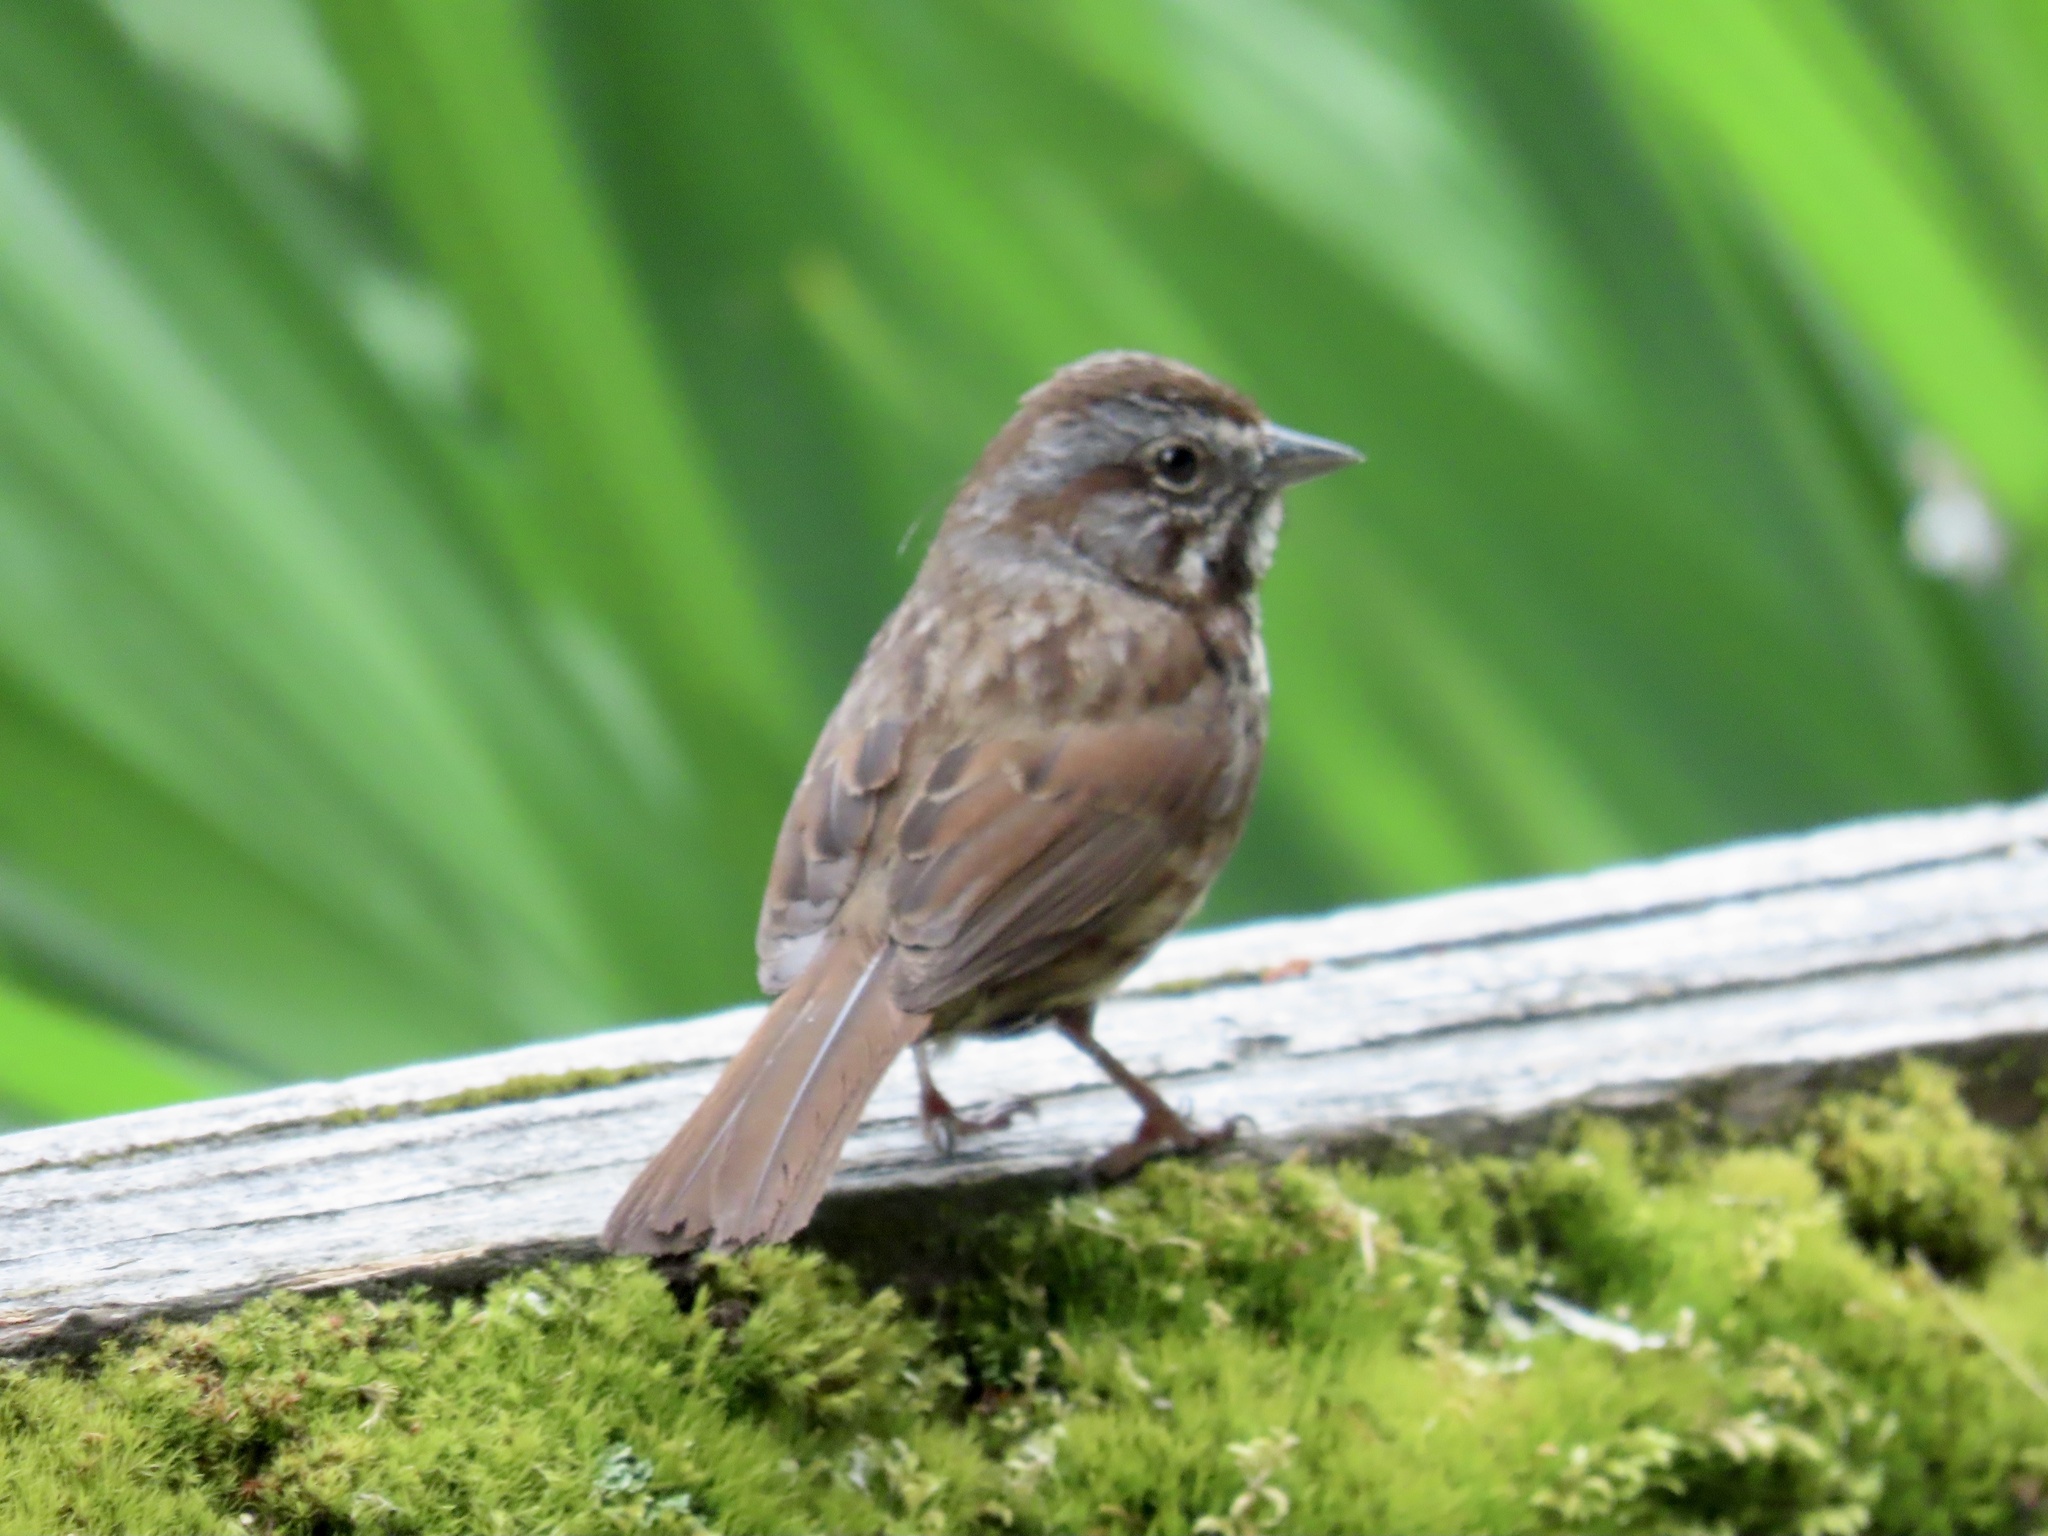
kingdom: Animalia
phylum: Chordata
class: Aves
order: Passeriformes
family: Passerellidae
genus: Melospiza
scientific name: Melospiza melodia
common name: Song sparrow
